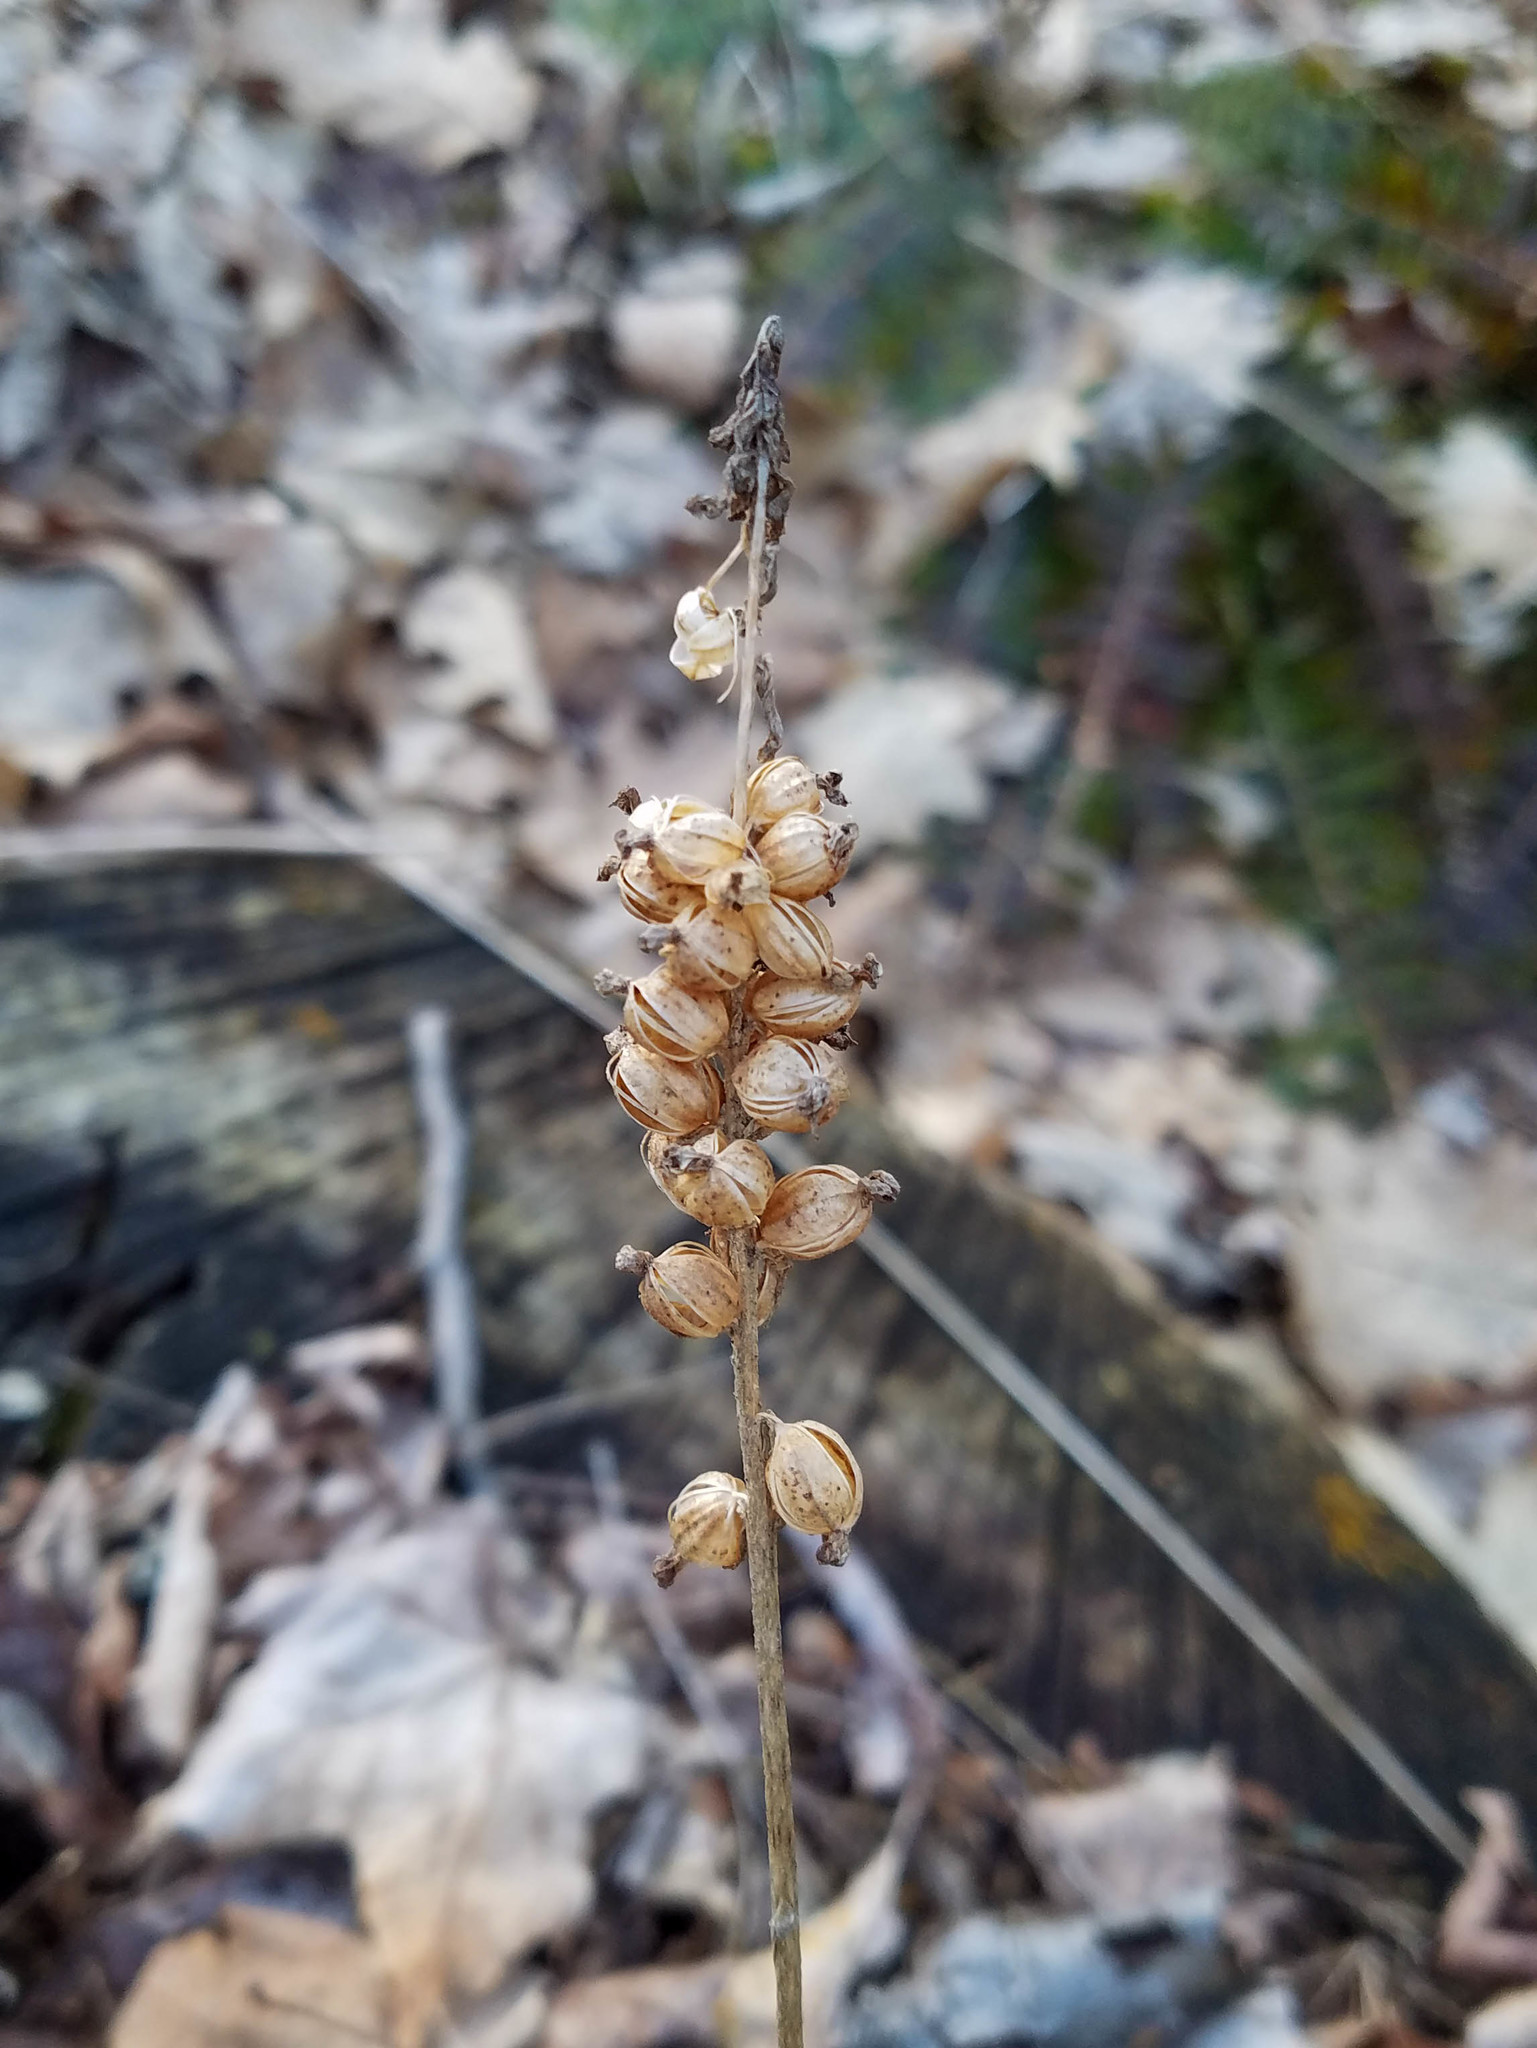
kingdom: Plantae
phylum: Tracheophyta
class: Liliopsida
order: Asparagales
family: Orchidaceae
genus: Goodyera
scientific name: Goodyera pubescens
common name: Downy rattlesnake-plantain
